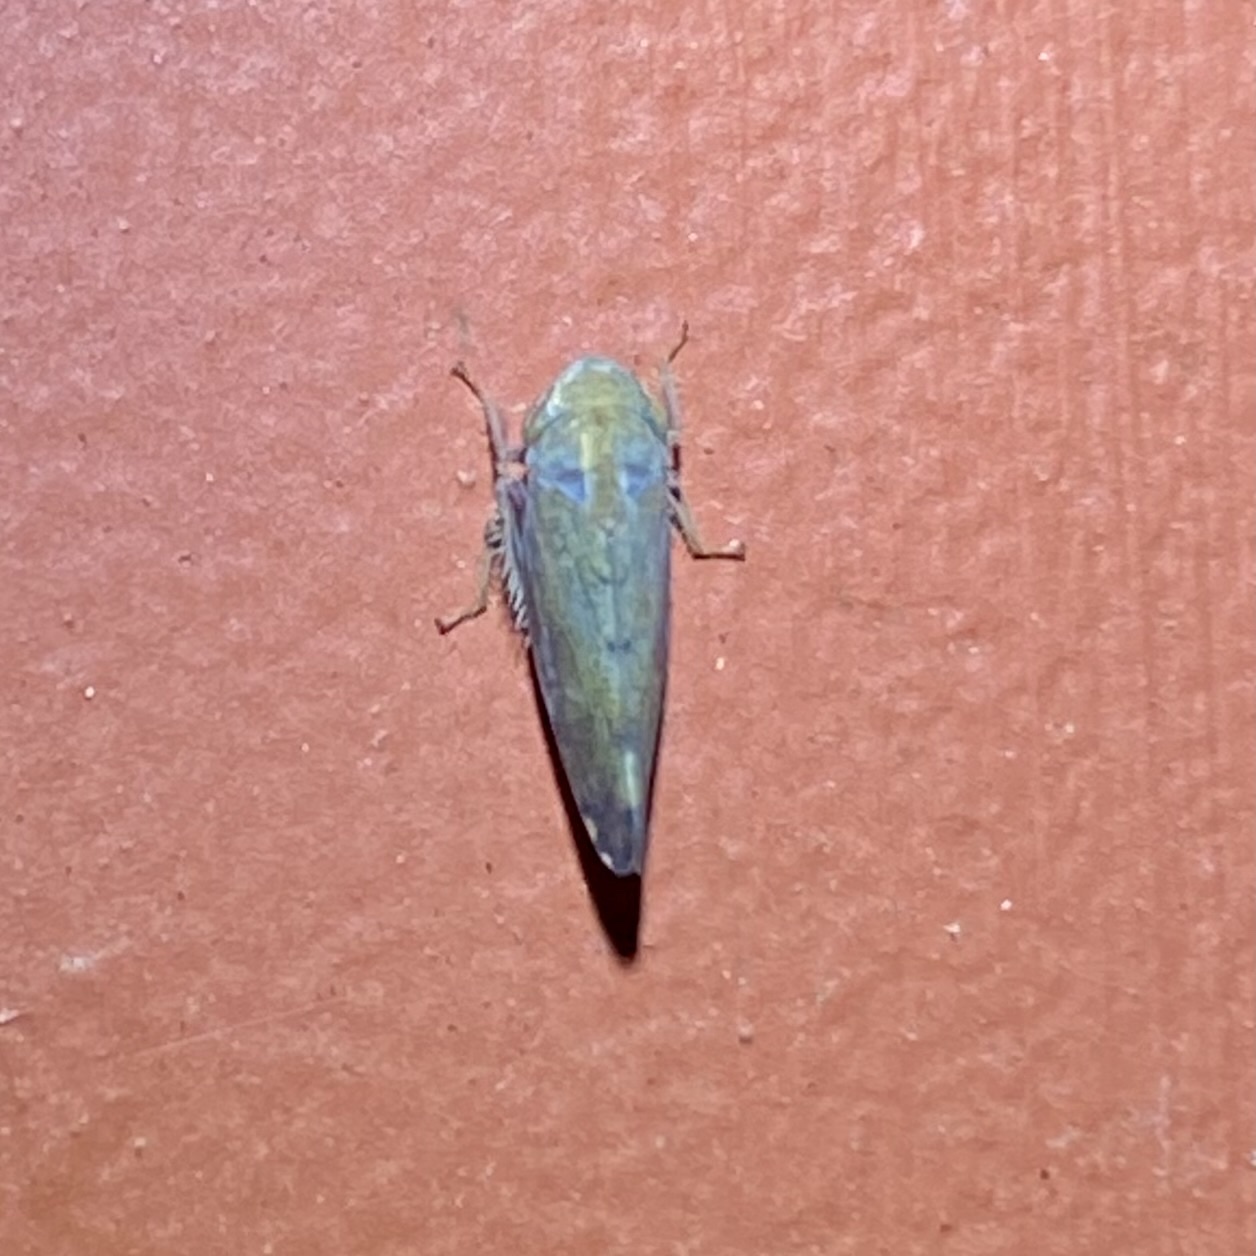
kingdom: Animalia
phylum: Arthropoda
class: Insecta
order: Hemiptera
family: Cicadellidae
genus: Fieberiella
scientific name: Fieberiella florii
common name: Flor’s leafhopper
